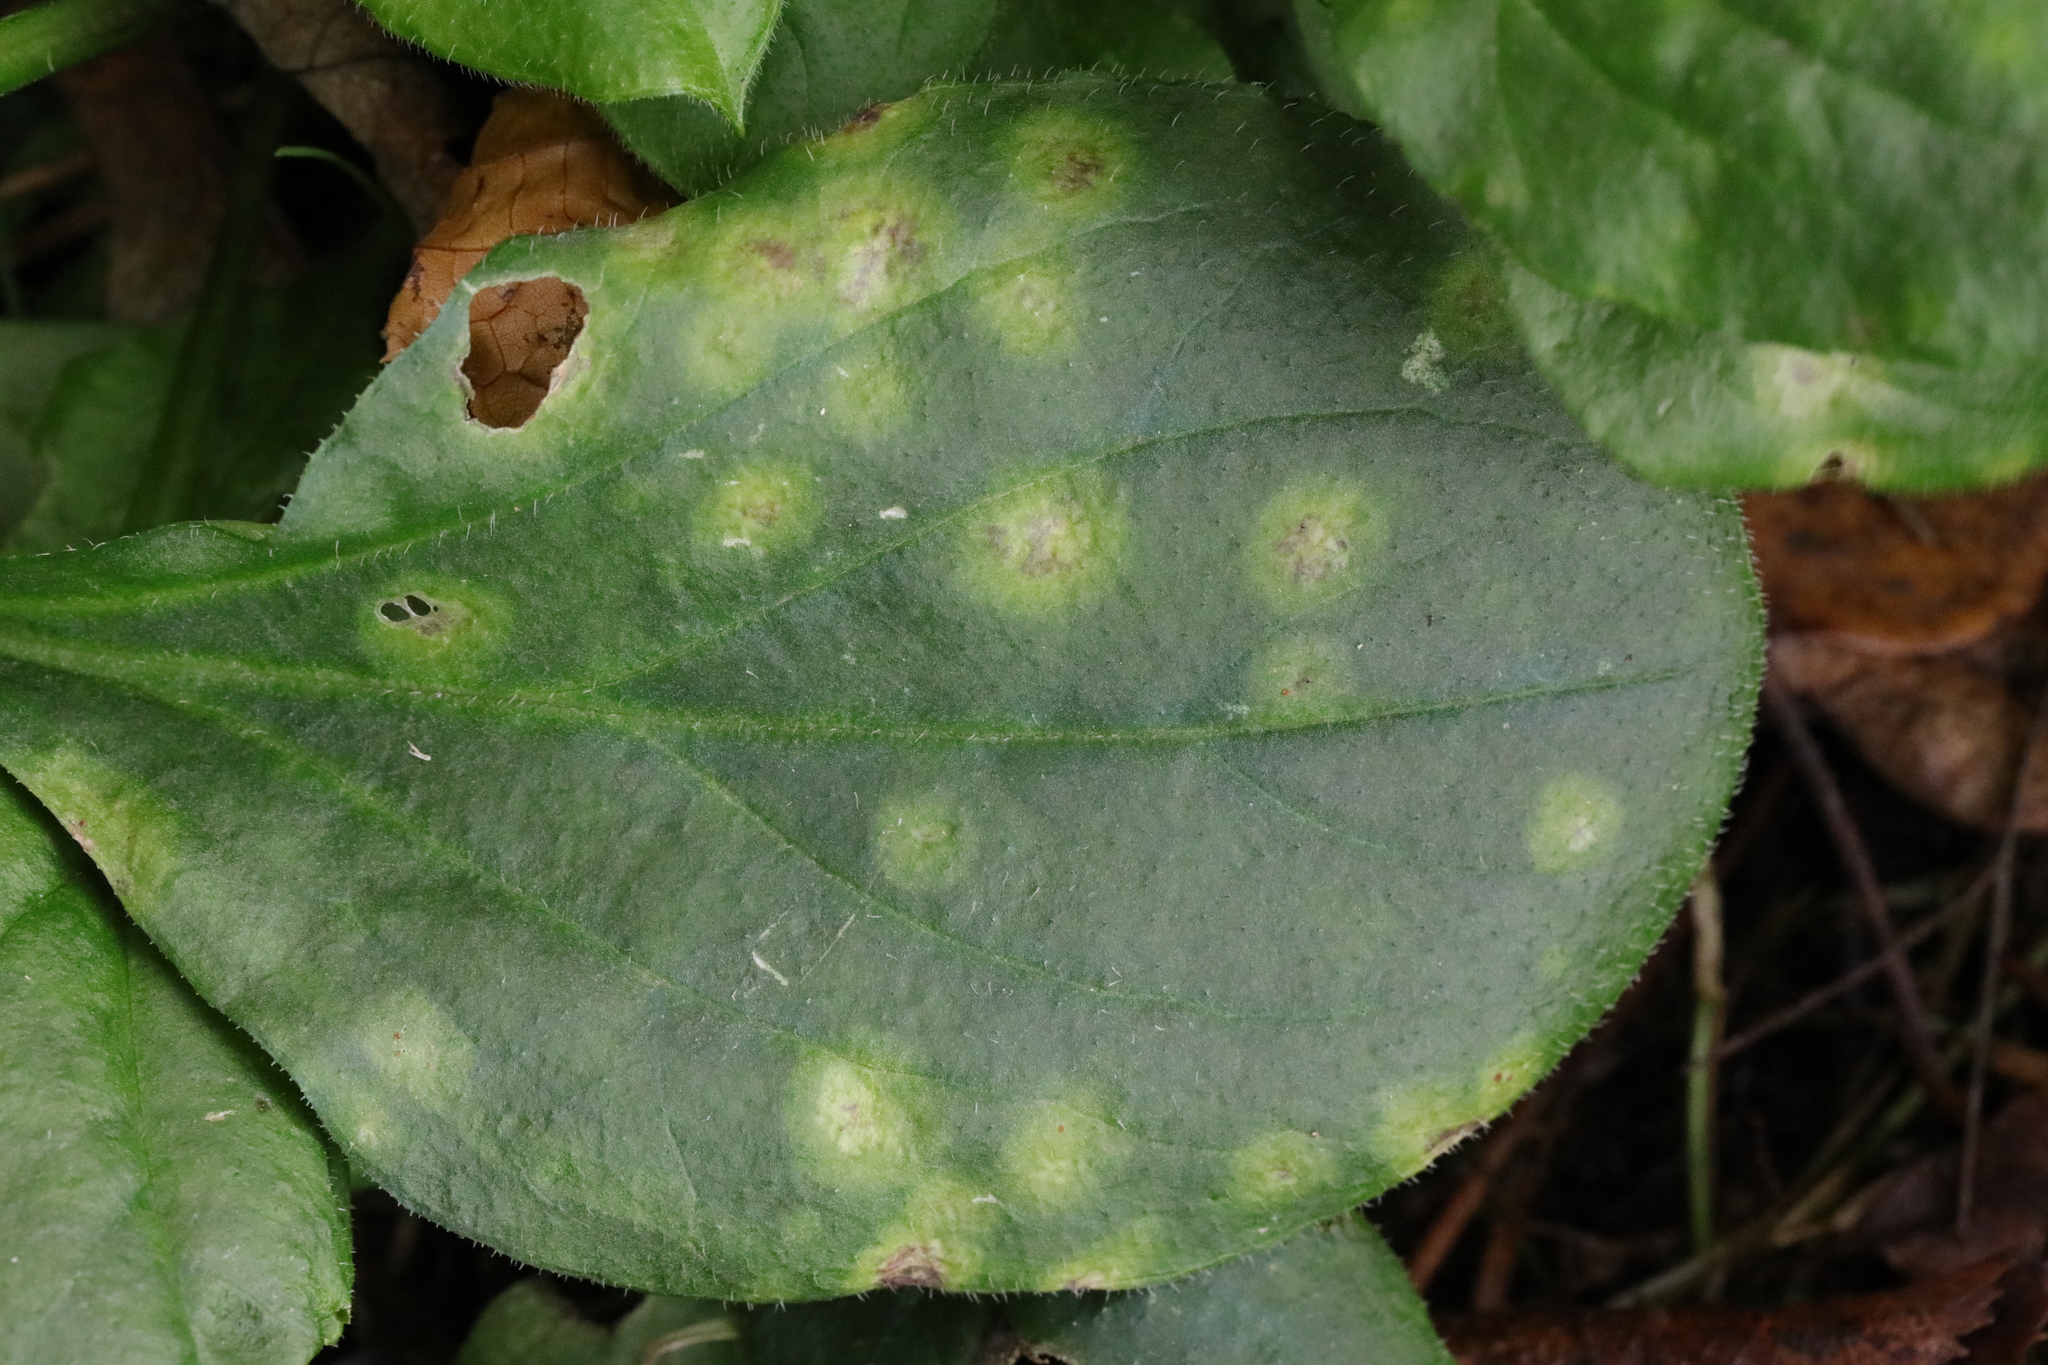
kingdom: Fungi
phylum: Basidiomycota
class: Pucciniomycetes
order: Pucciniales
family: Pucciniaceae
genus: Puccinia
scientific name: Puccinia arenariae
